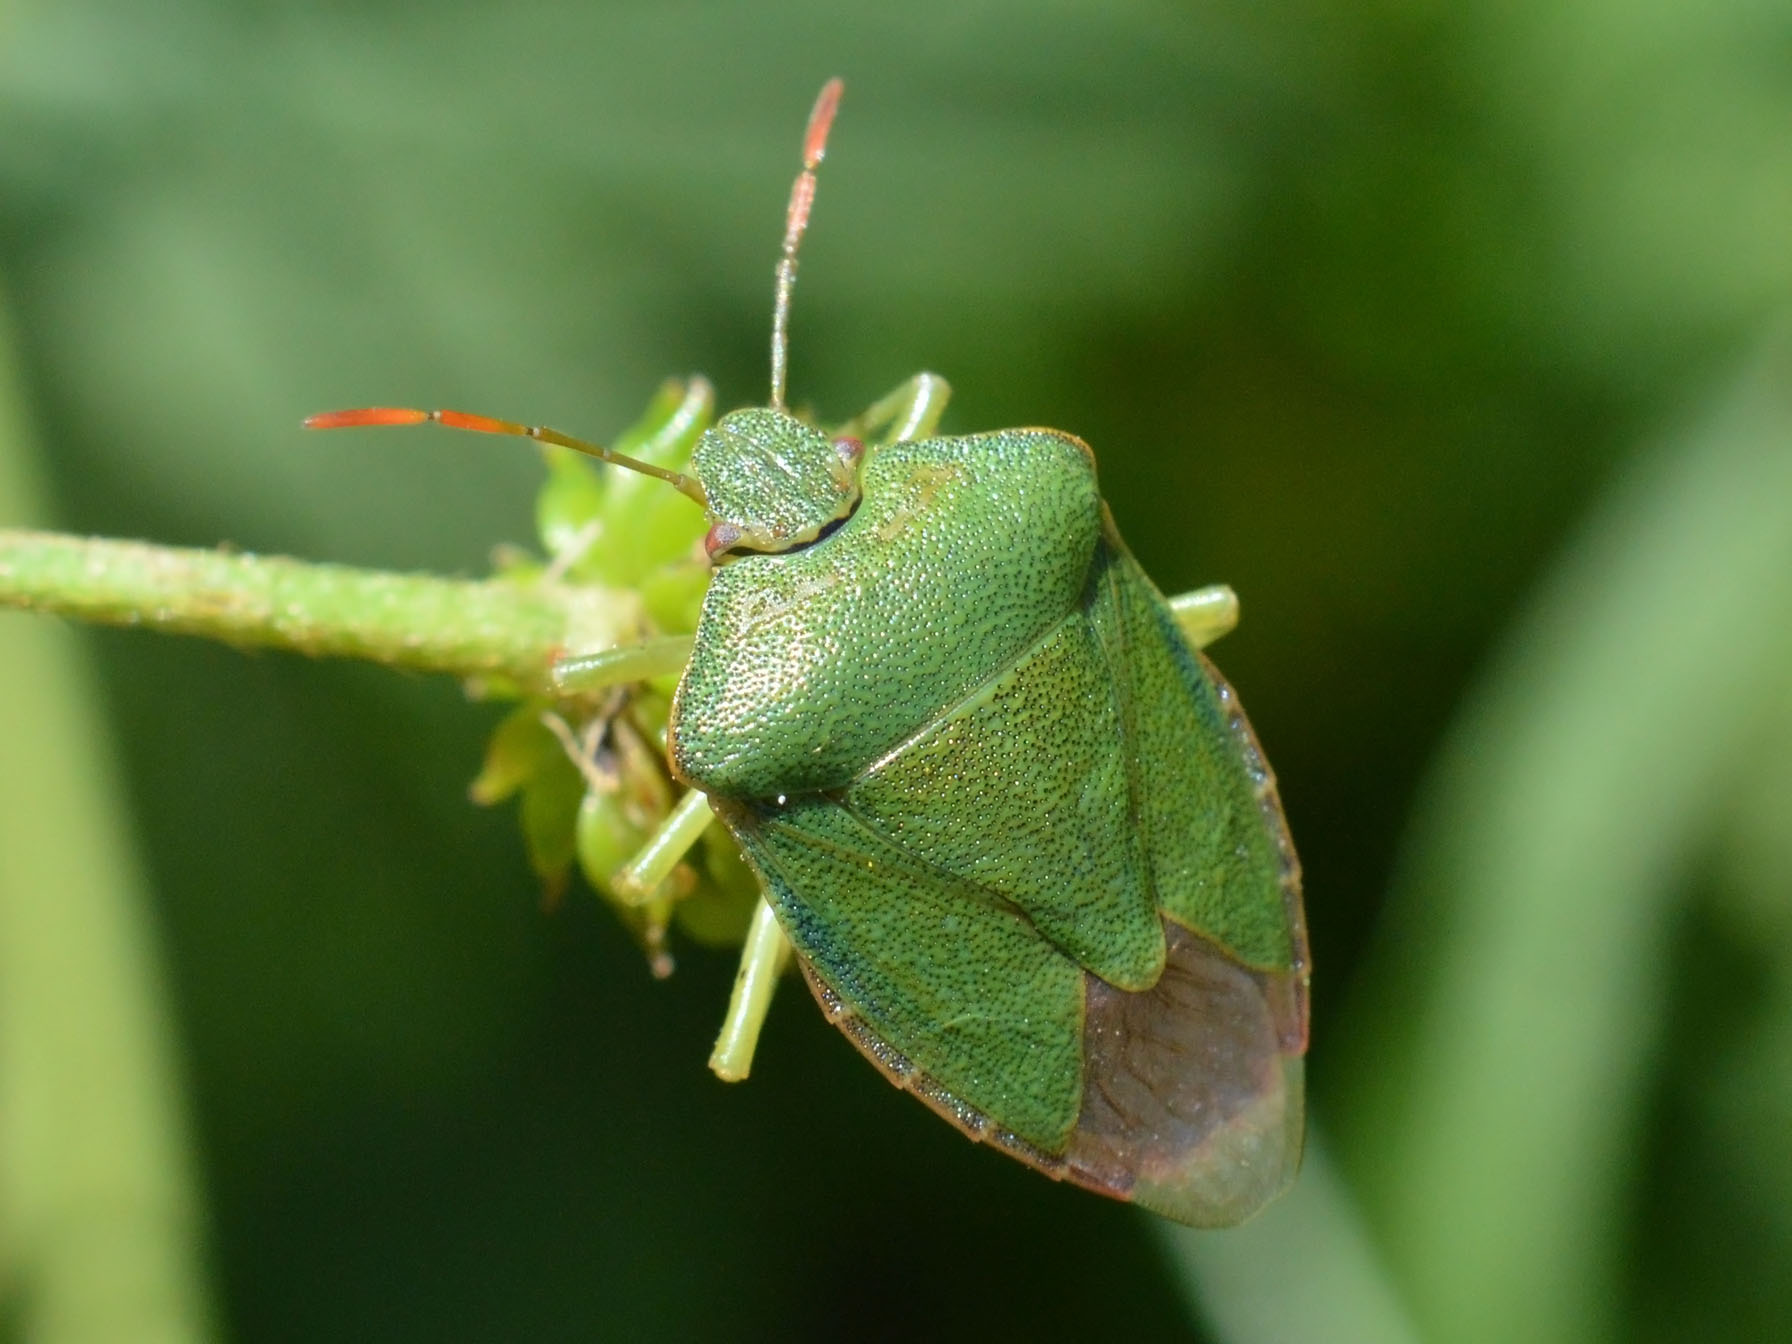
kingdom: Animalia
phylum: Arthropoda
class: Insecta
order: Hemiptera
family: Pentatomidae
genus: Palomena
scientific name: Palomena prasina
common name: Green shieldbug
